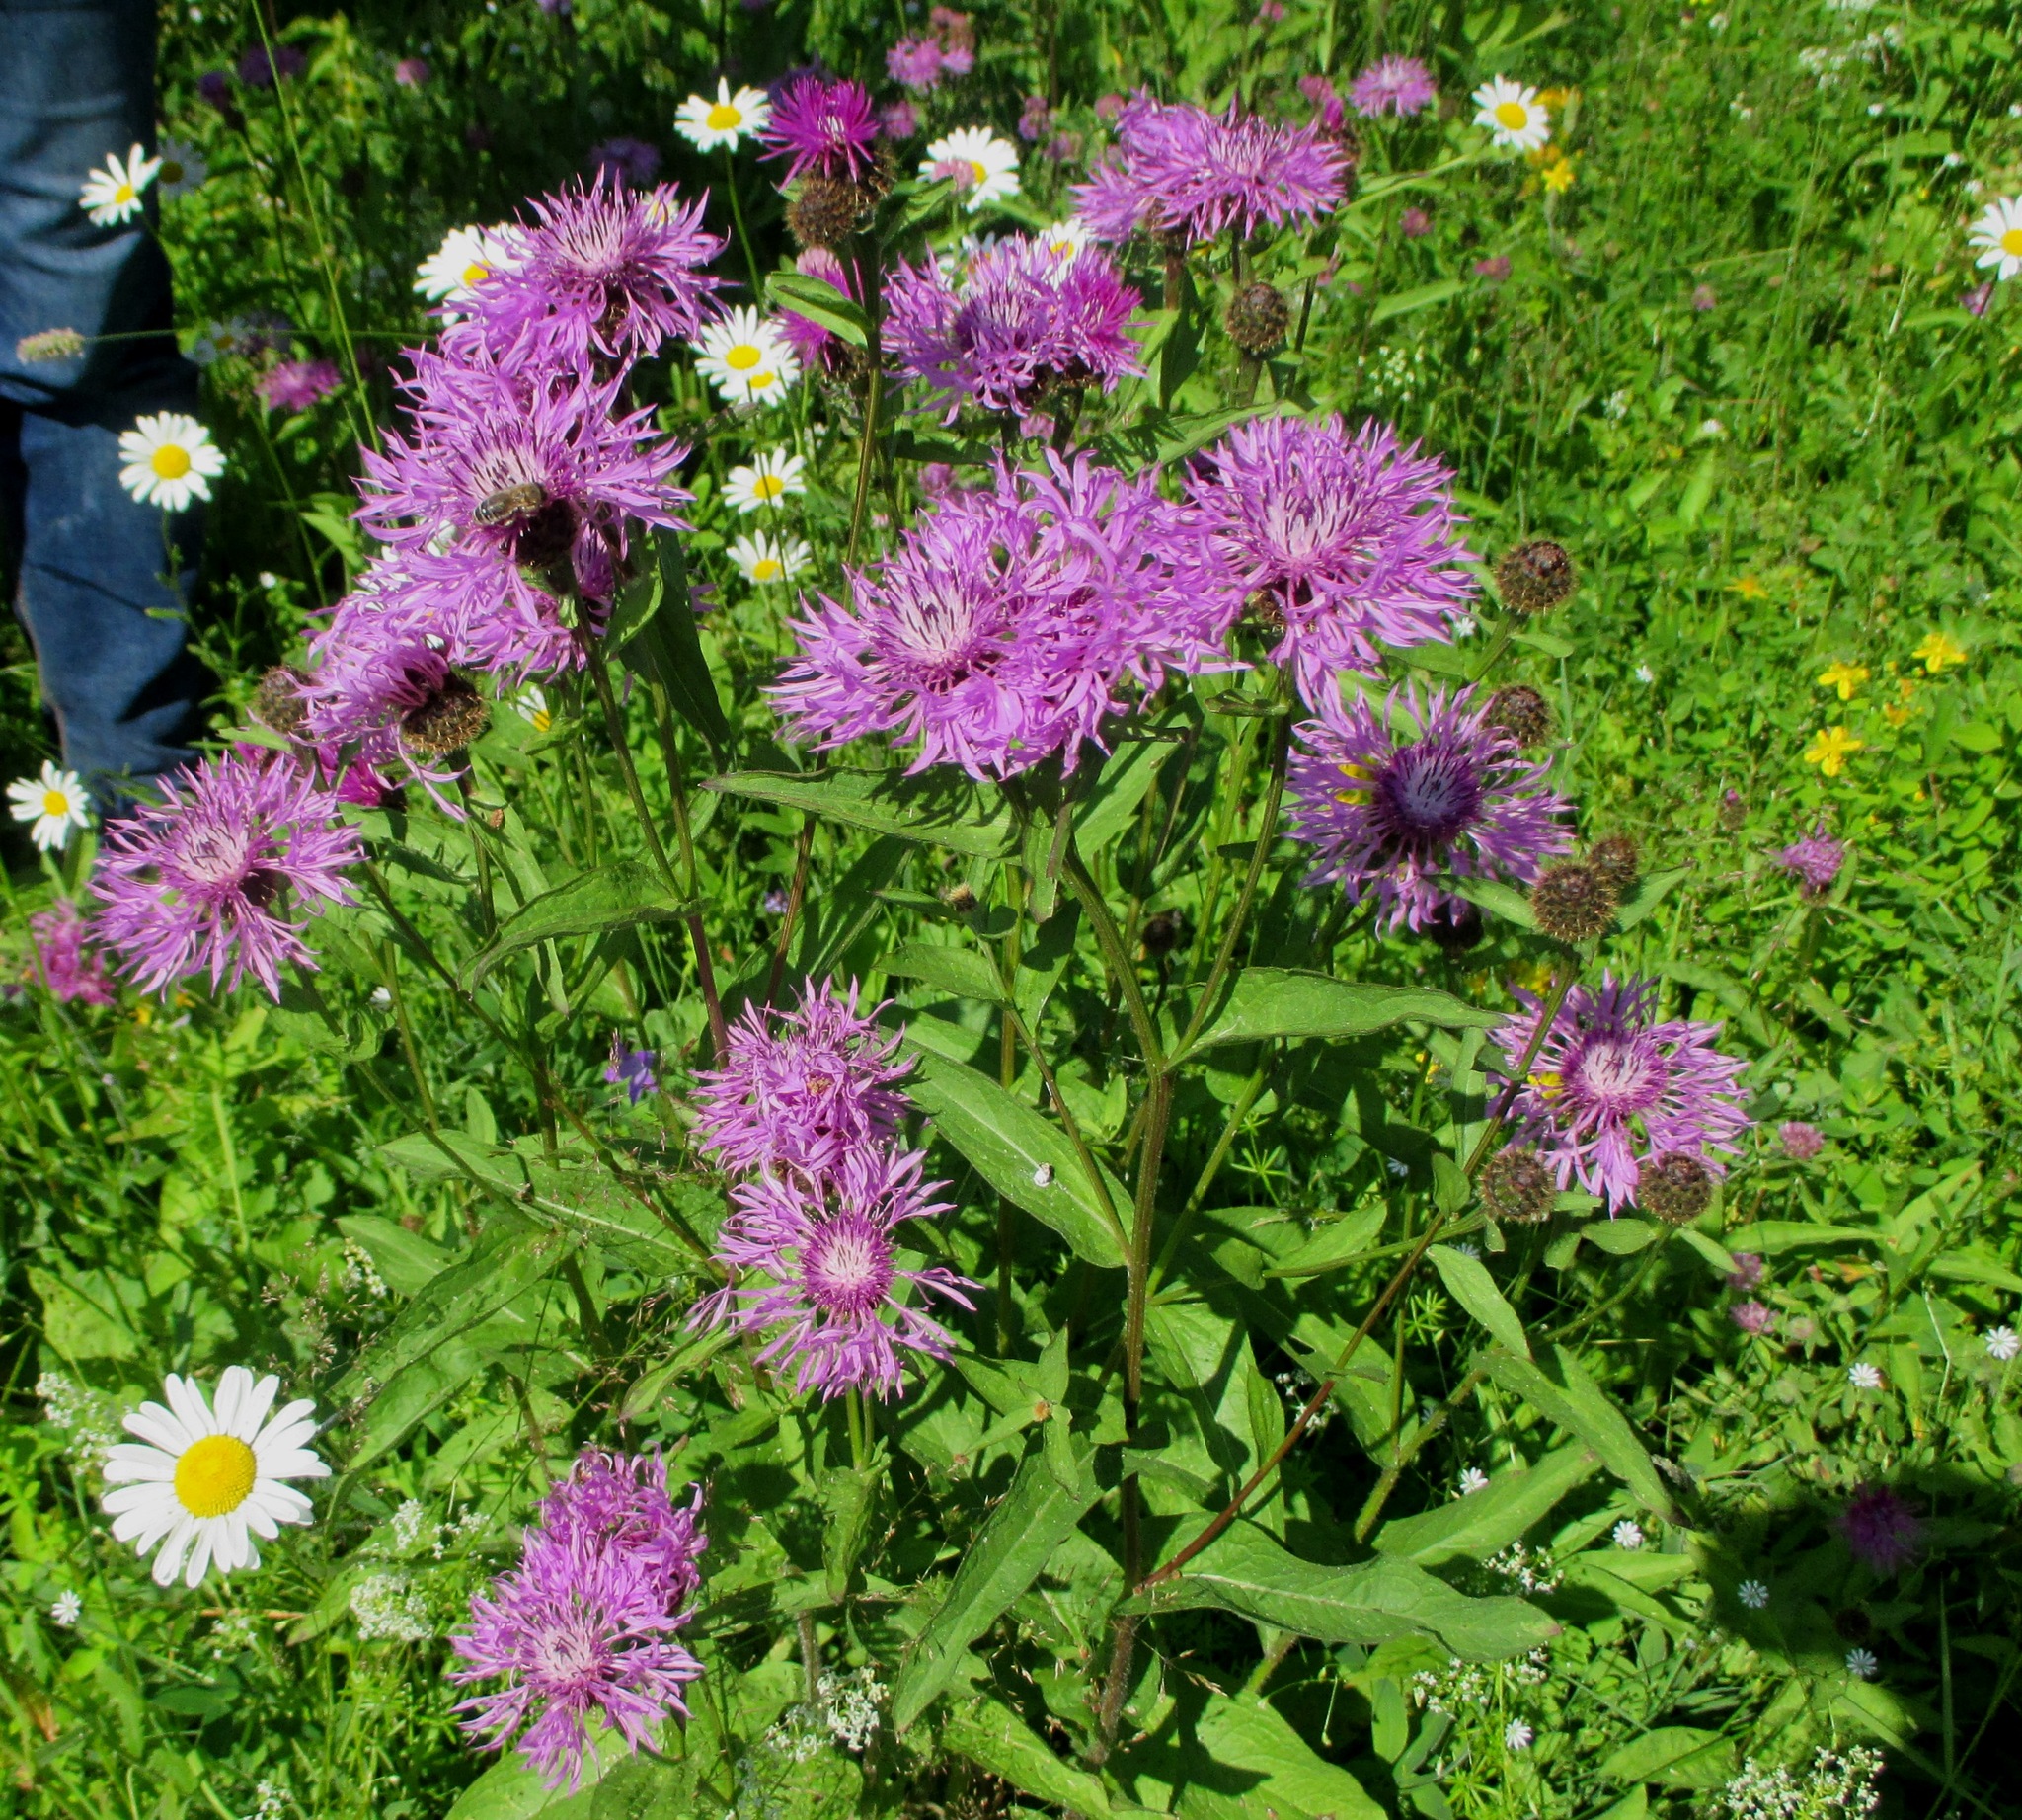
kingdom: Plantae
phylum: Tracheophyta
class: Magnoliopsida
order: Asterales
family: Asteraceae
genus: Centaurea
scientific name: Centaurea phrygia
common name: Wig knapweed
